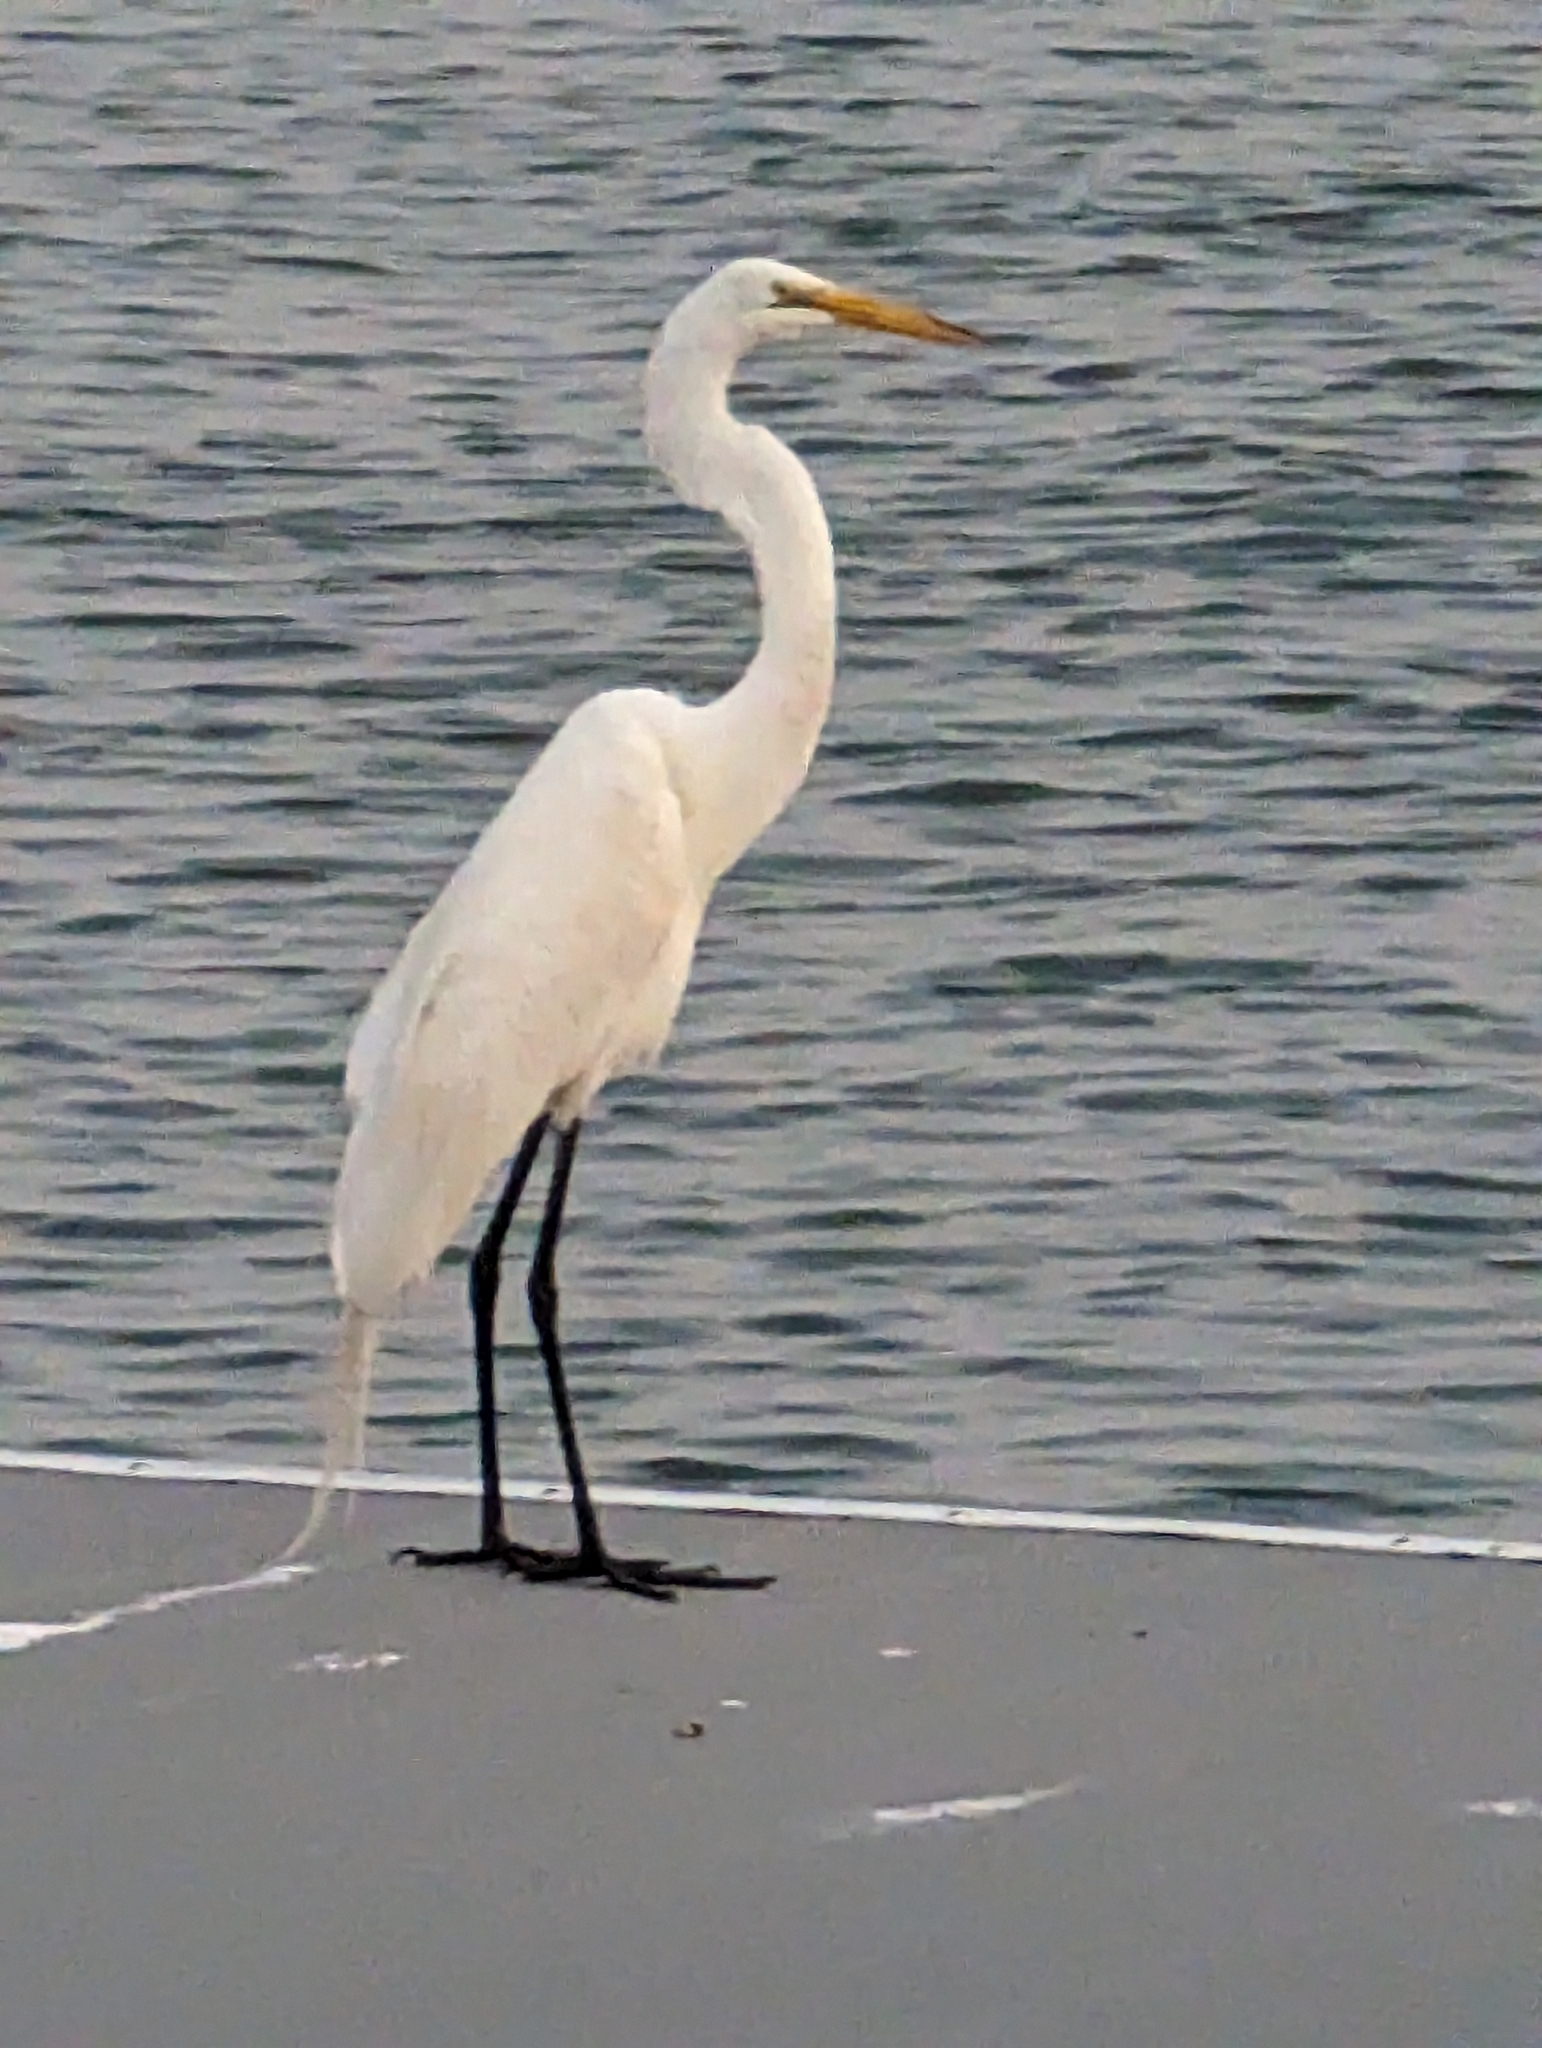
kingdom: Animalia
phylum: Chordata
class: Aves
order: Pelecaniformes
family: Ardeidae
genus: Ardea
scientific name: Ardea alba
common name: Great egret
